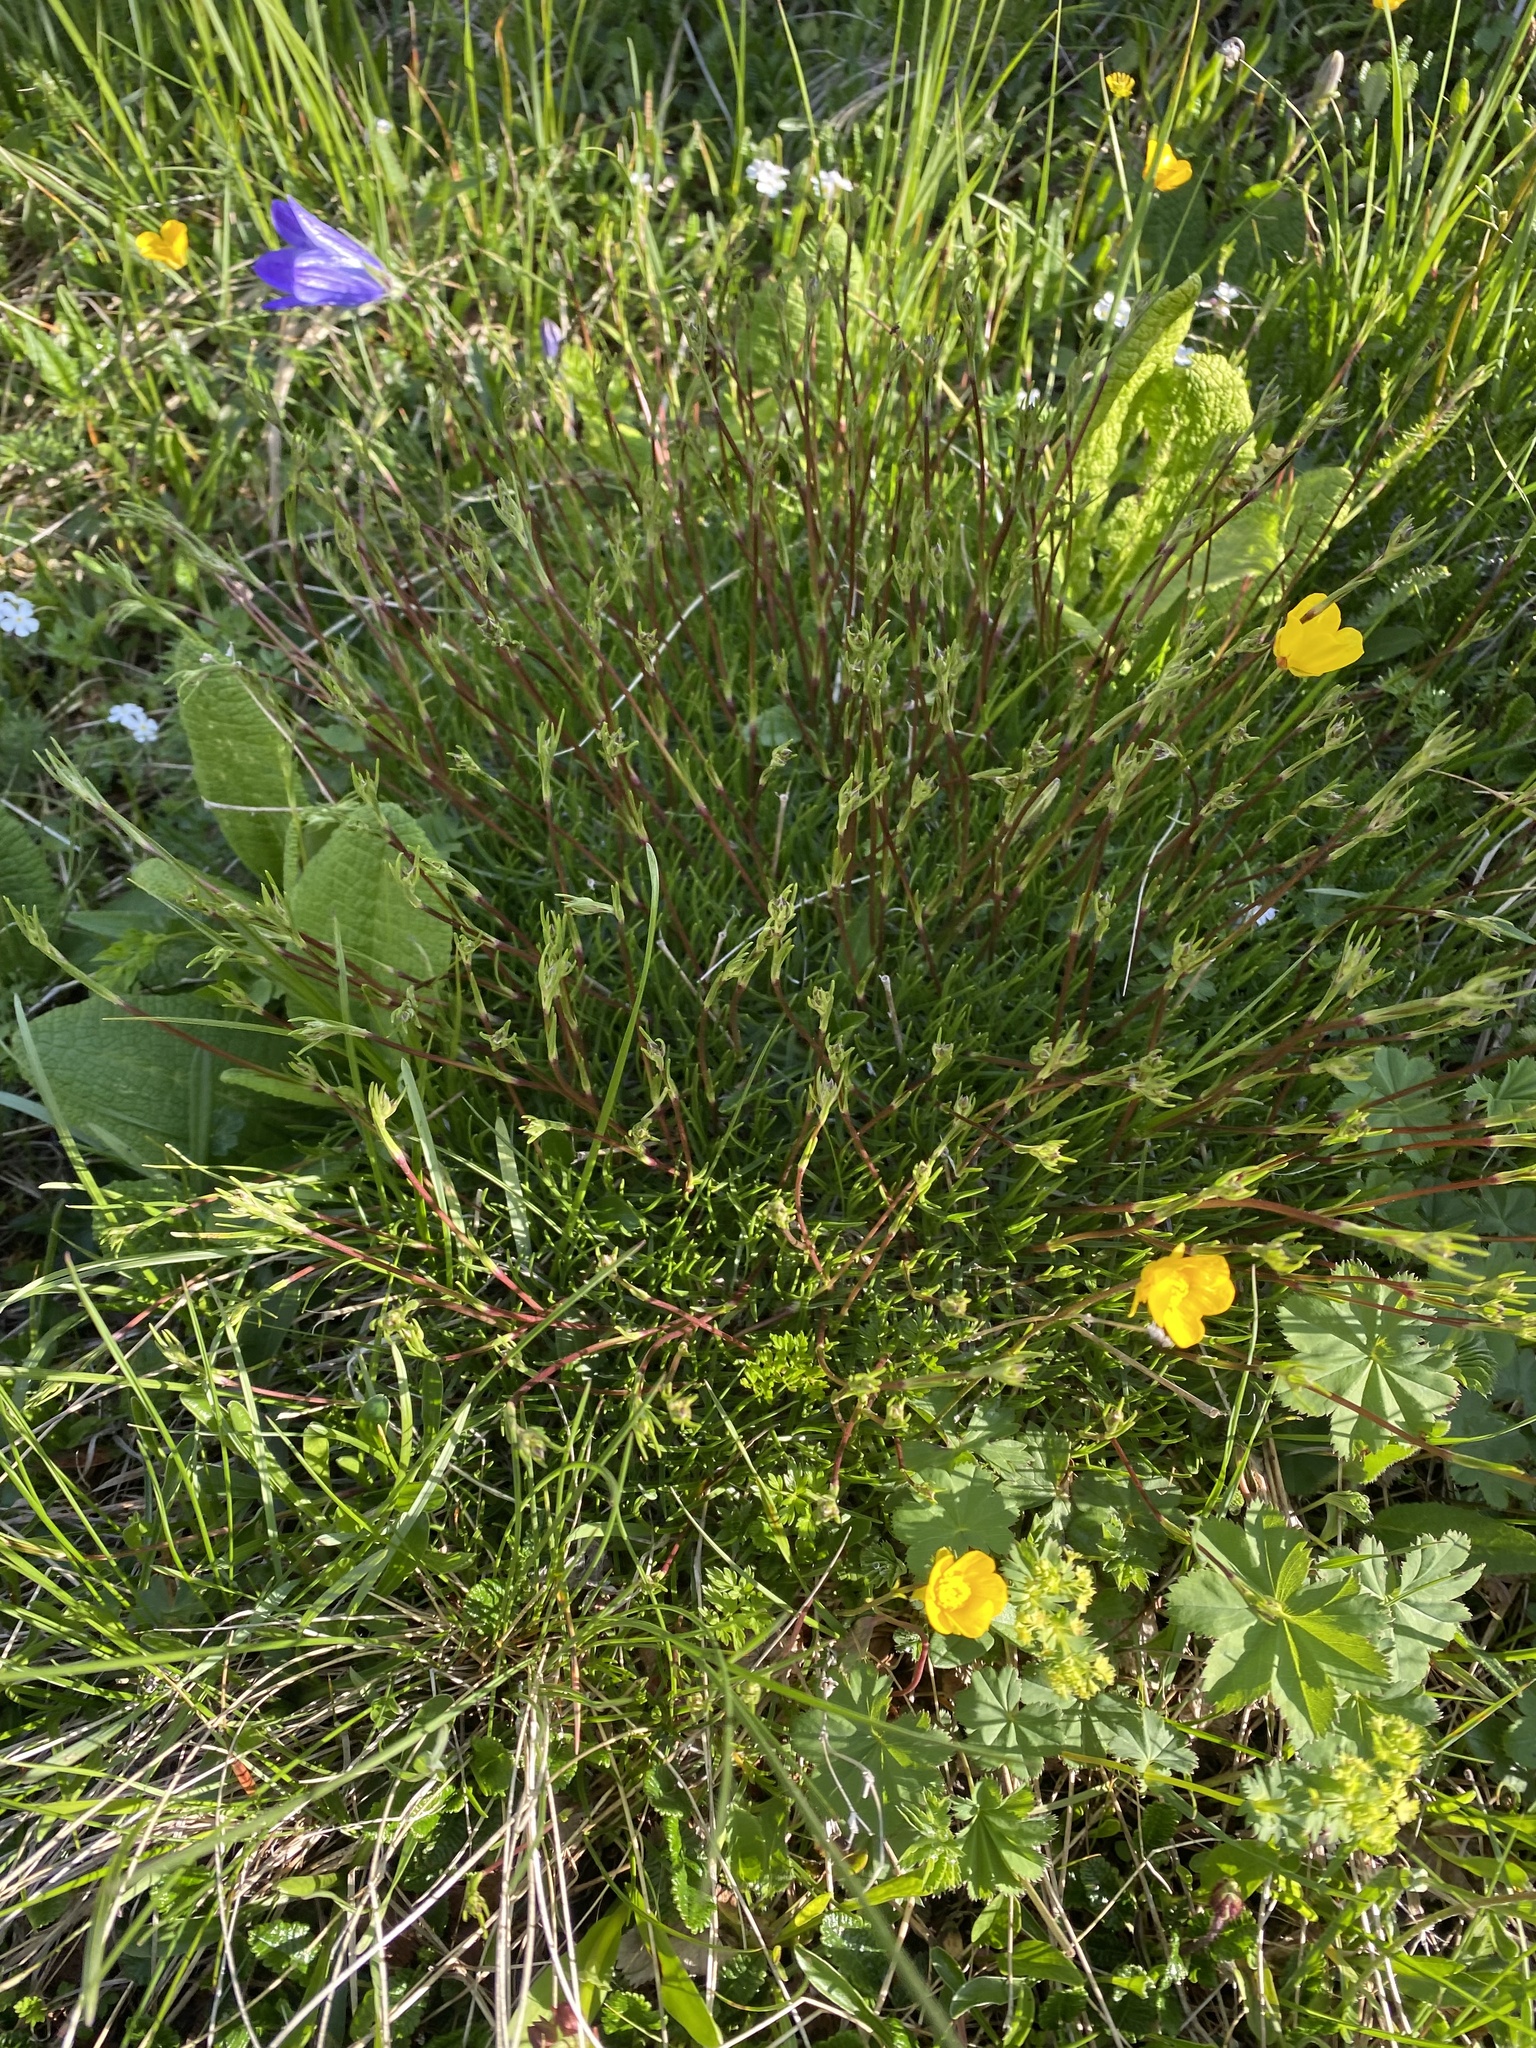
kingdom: Plantae
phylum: Tracheophyta
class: Magnoliopsida
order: Caryophyllales
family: Caryophyllaceae
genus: Gypsophila
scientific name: Gypsophila tenuifolia
